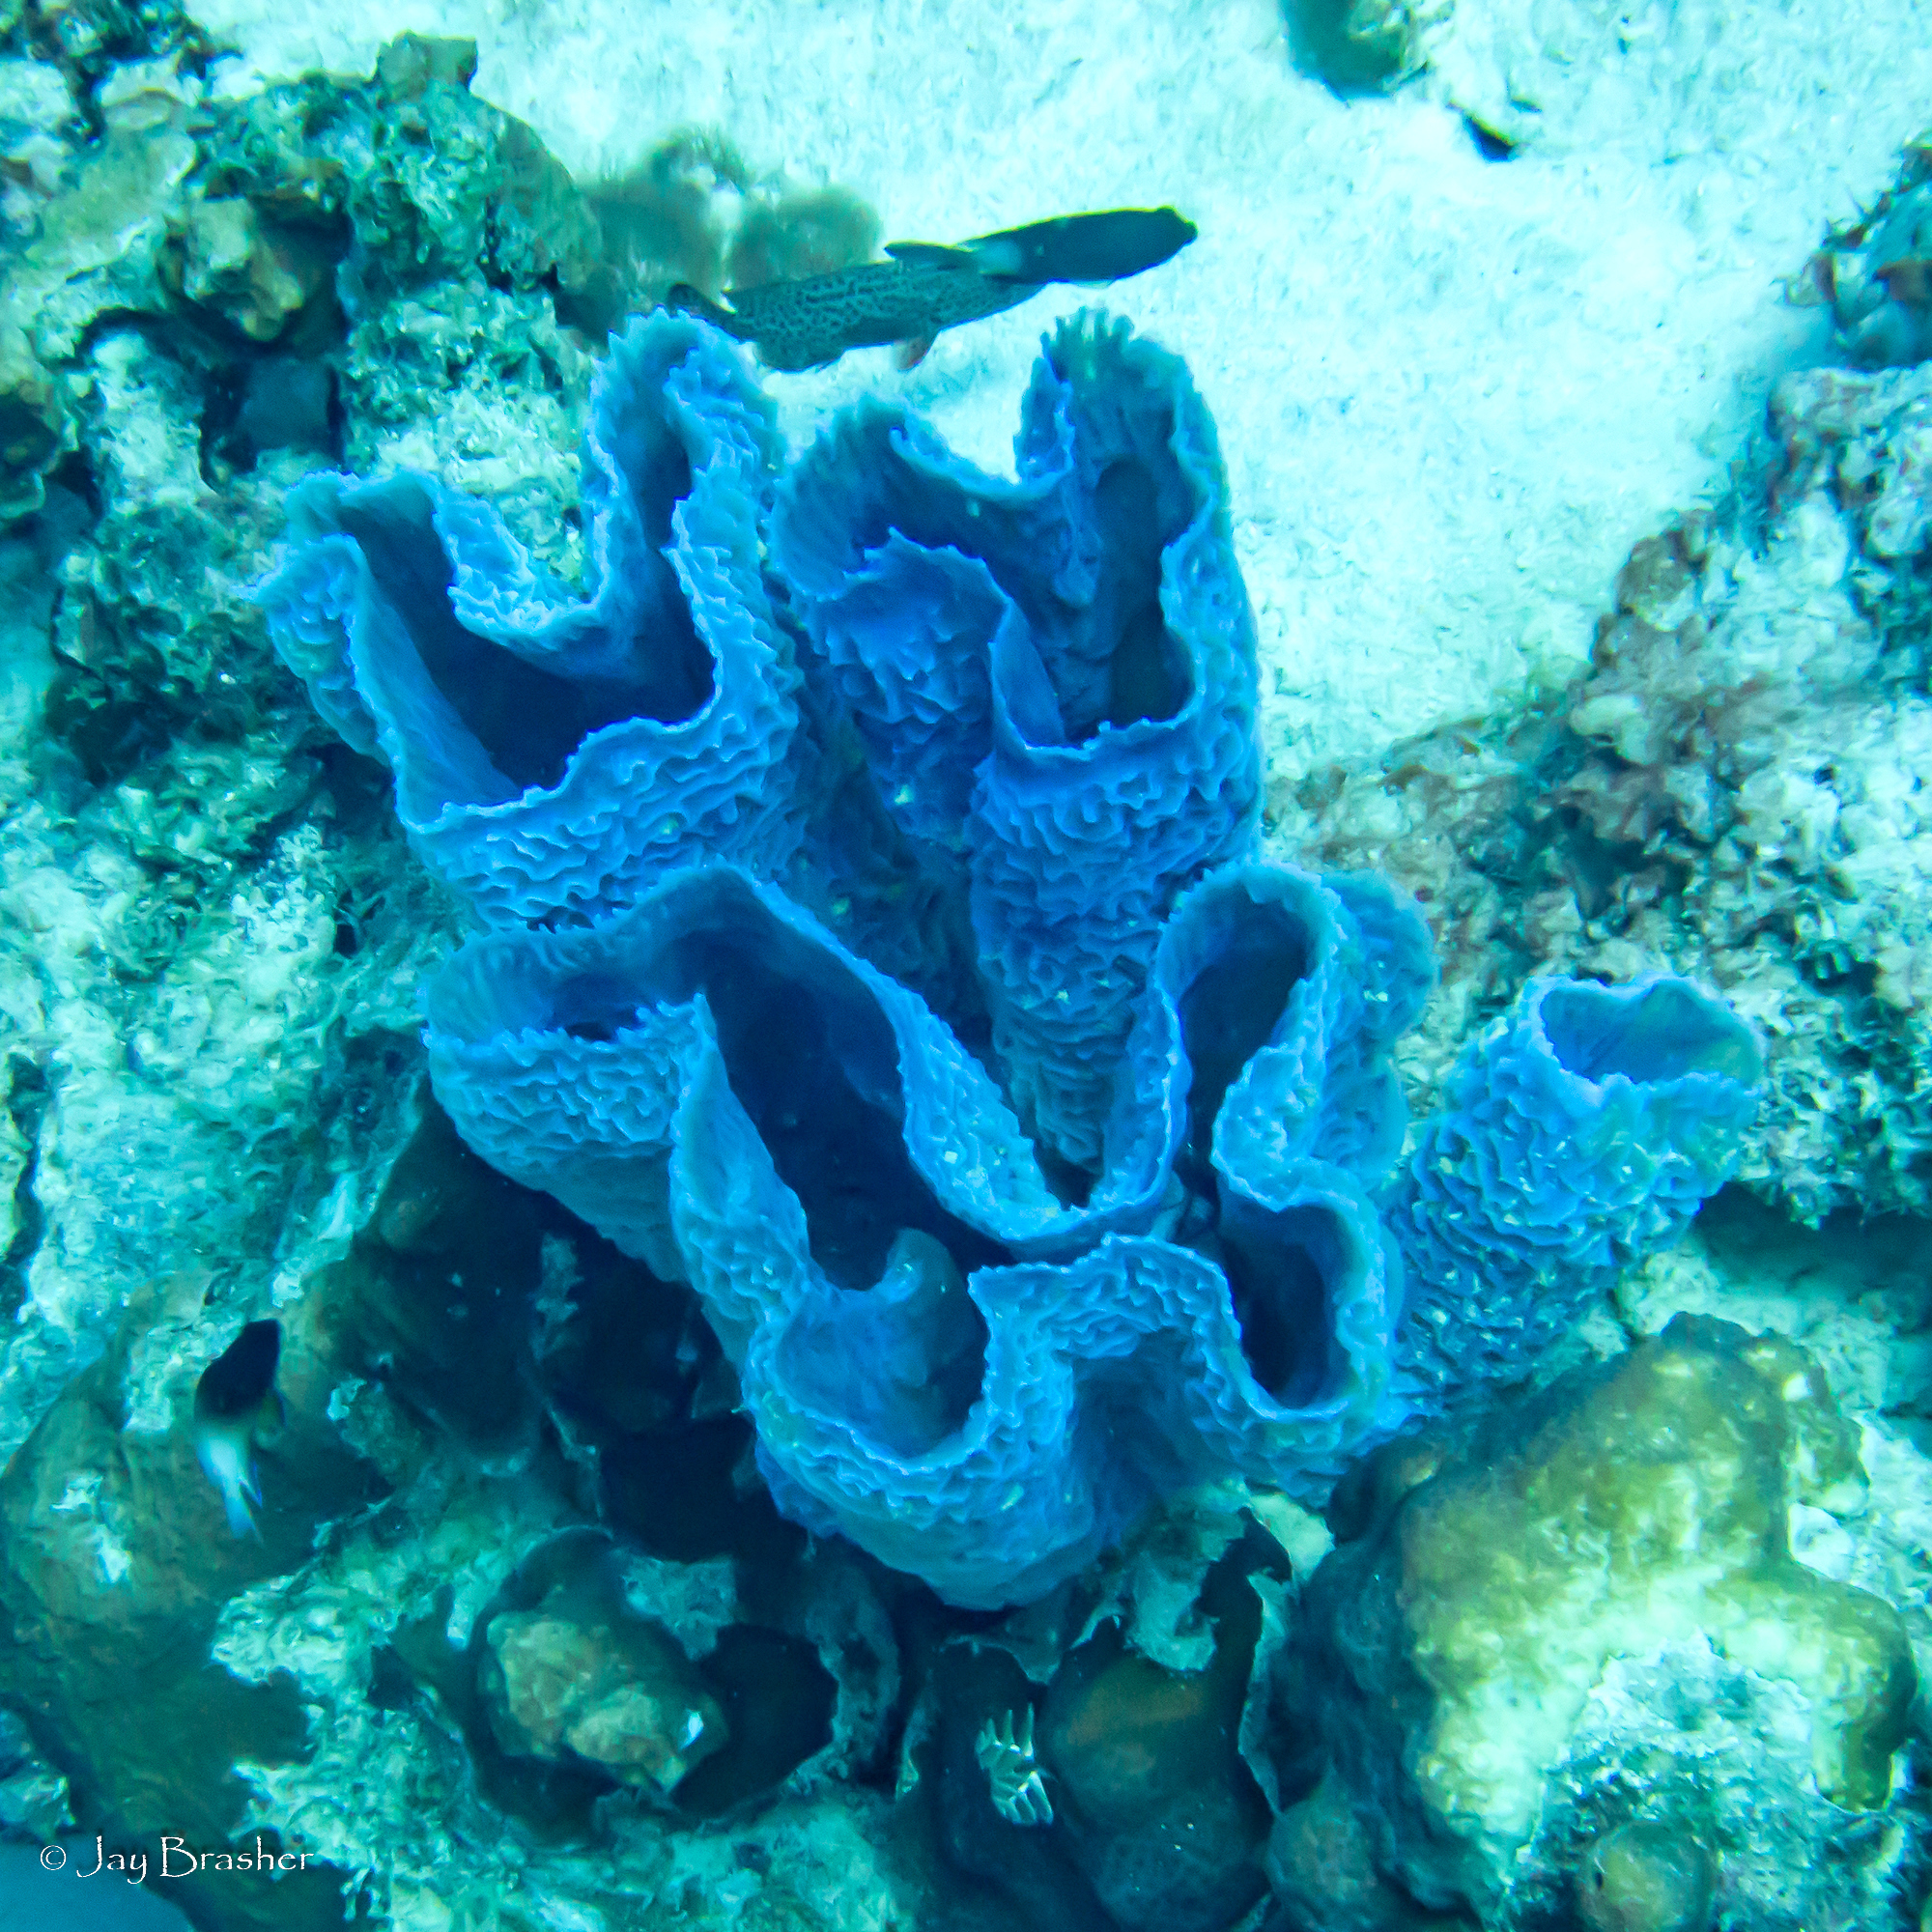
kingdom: Animalia
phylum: Porifera
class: Demospongiae
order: Haplosclerida
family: Callyspongiidae
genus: Callyspongia
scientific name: Callyspongia plicifera
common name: Azure vase sponge
